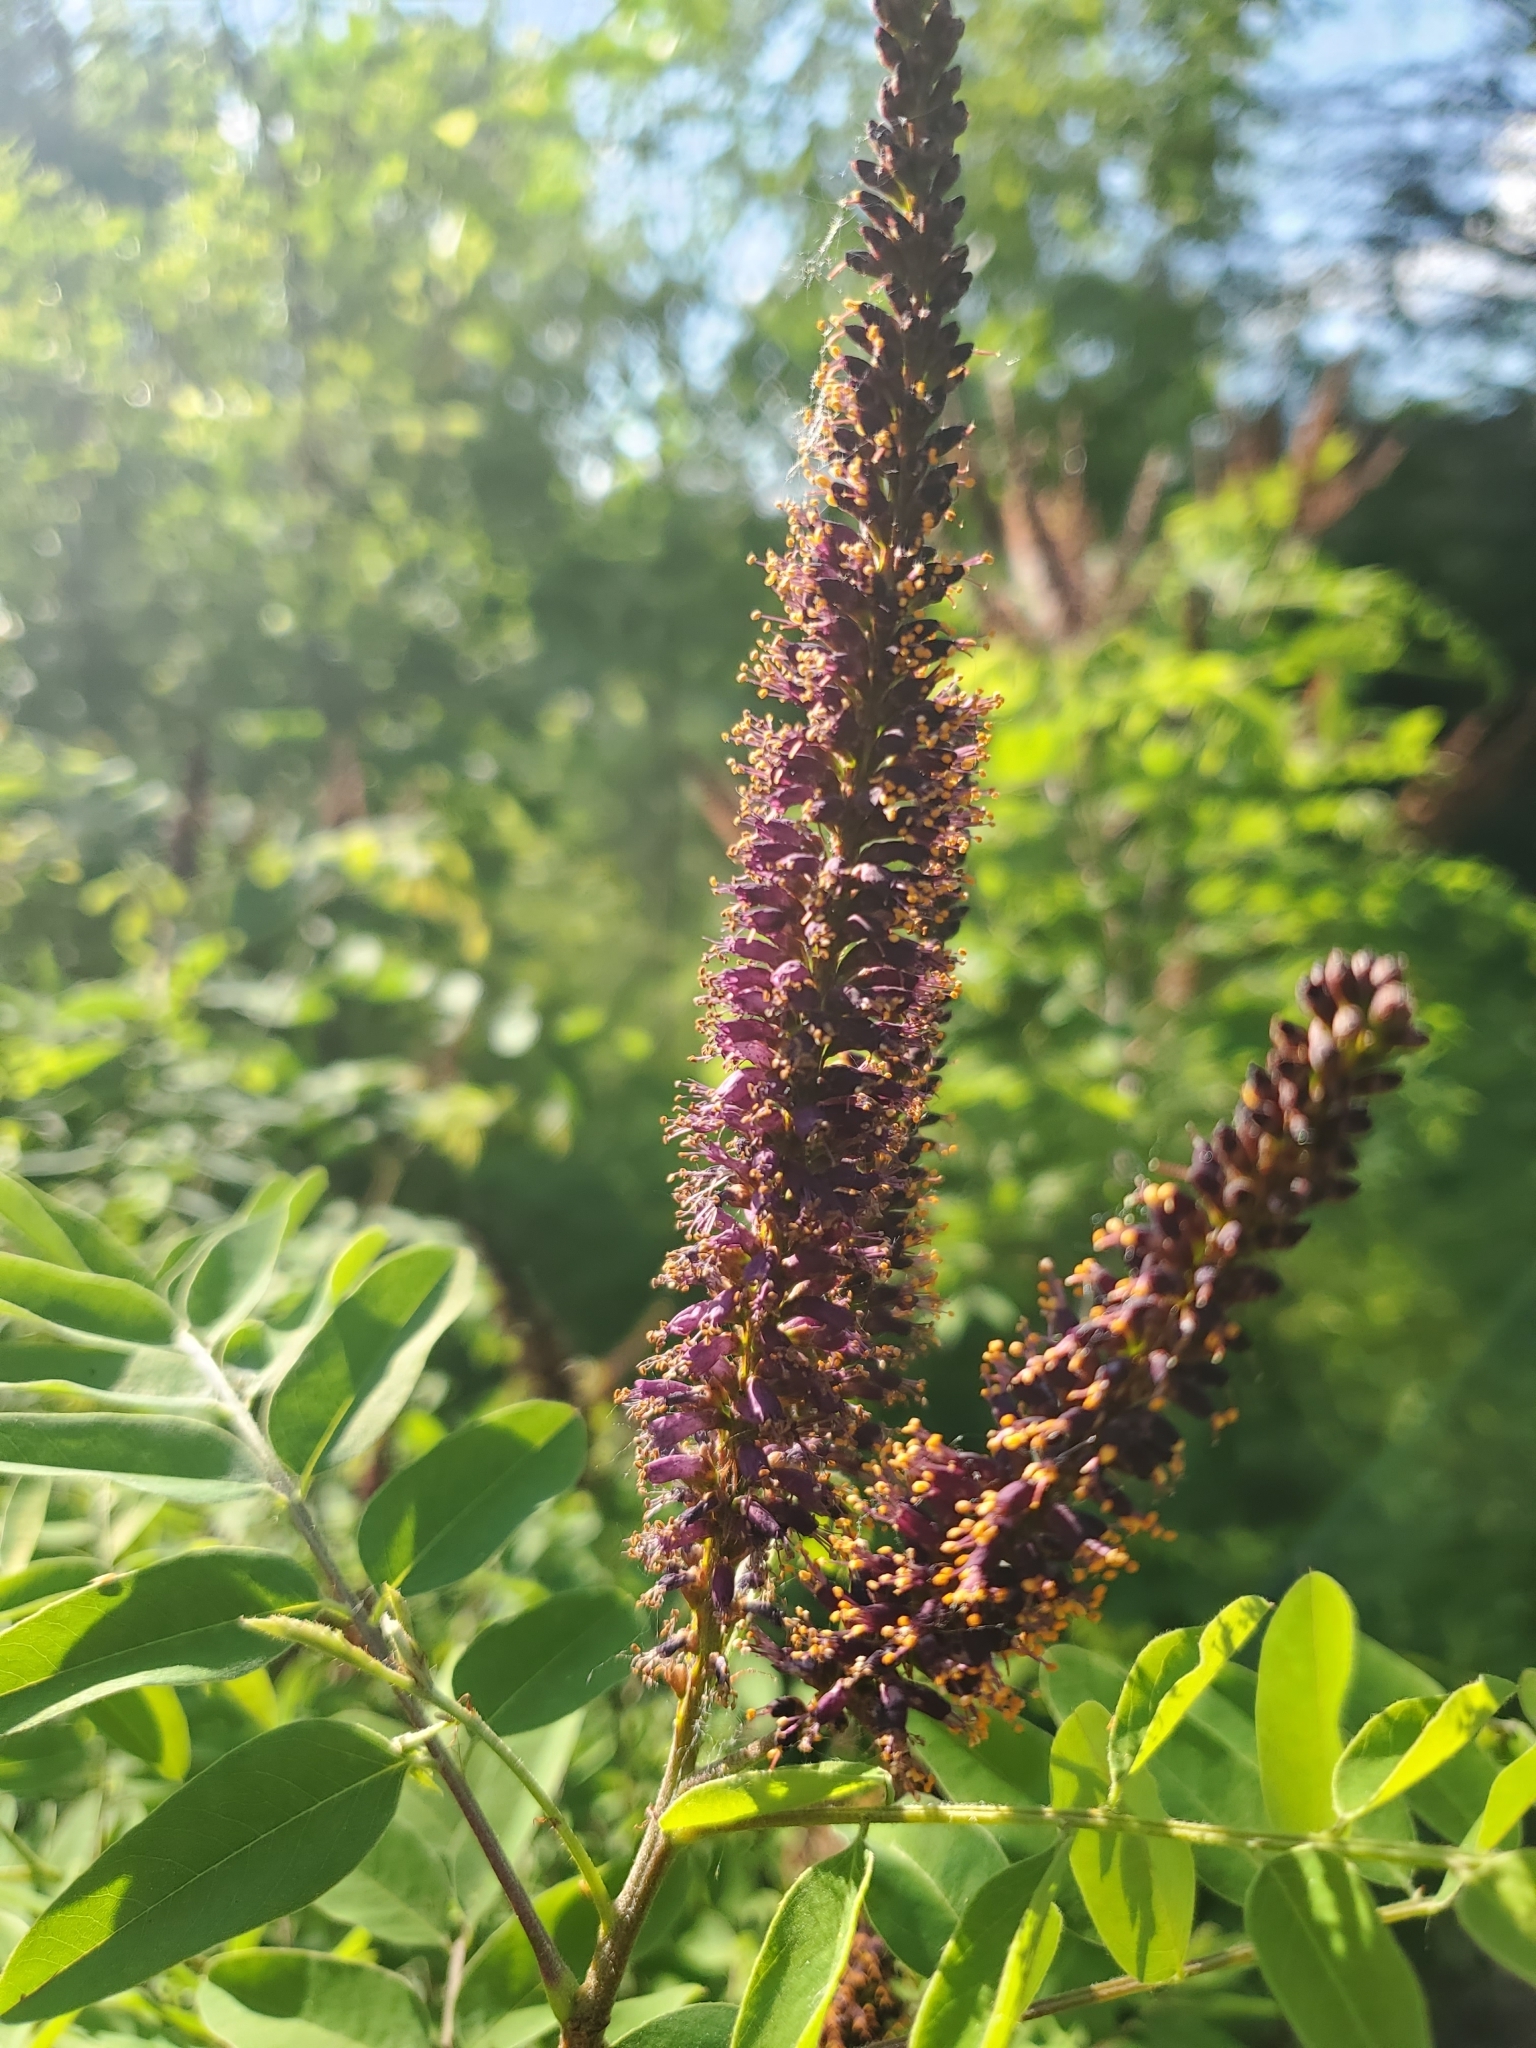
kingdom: Plantae
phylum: Tracheophyta
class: Magnoliopsida
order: Fabales
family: Fabaceae
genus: Amorpha
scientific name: Amorpha fruticosa
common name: False indigo
